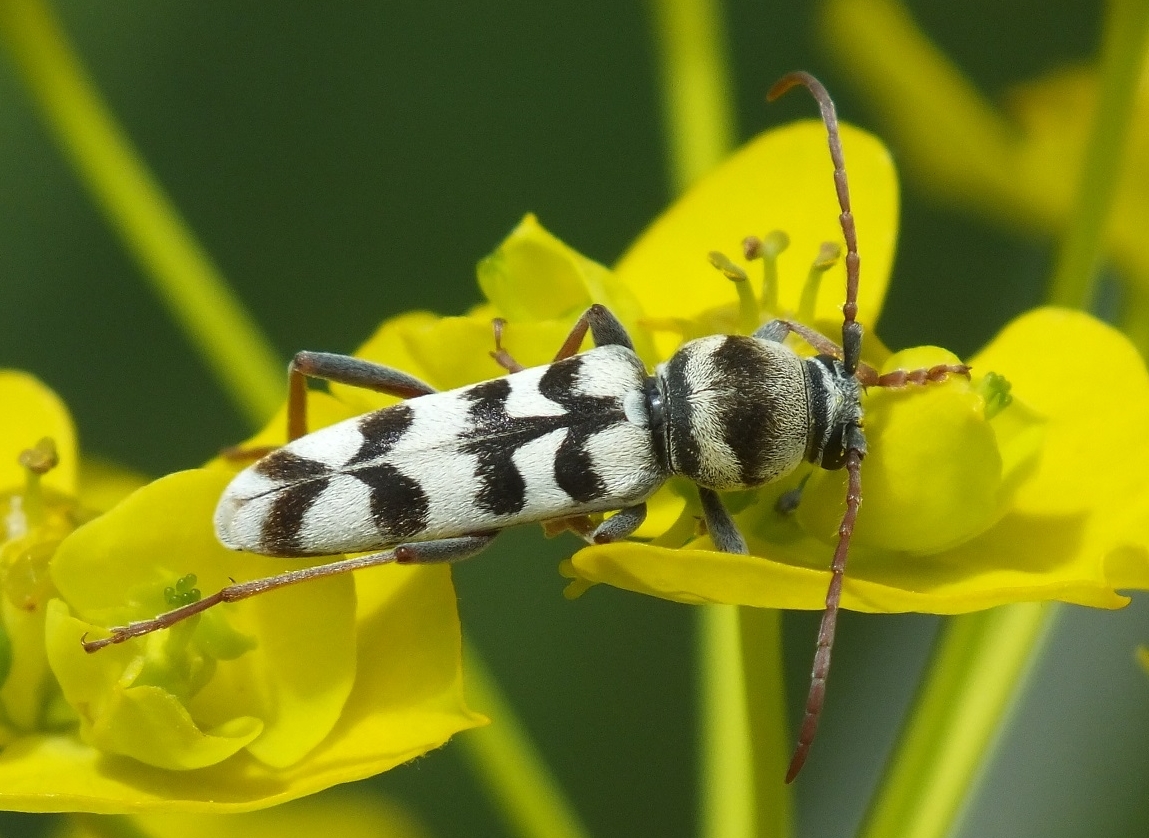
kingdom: Animalia
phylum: Arthropoda
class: Insecta
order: Coleoptera
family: Cerambycidae
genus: Plagionotus
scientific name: Plagionotus floralis
